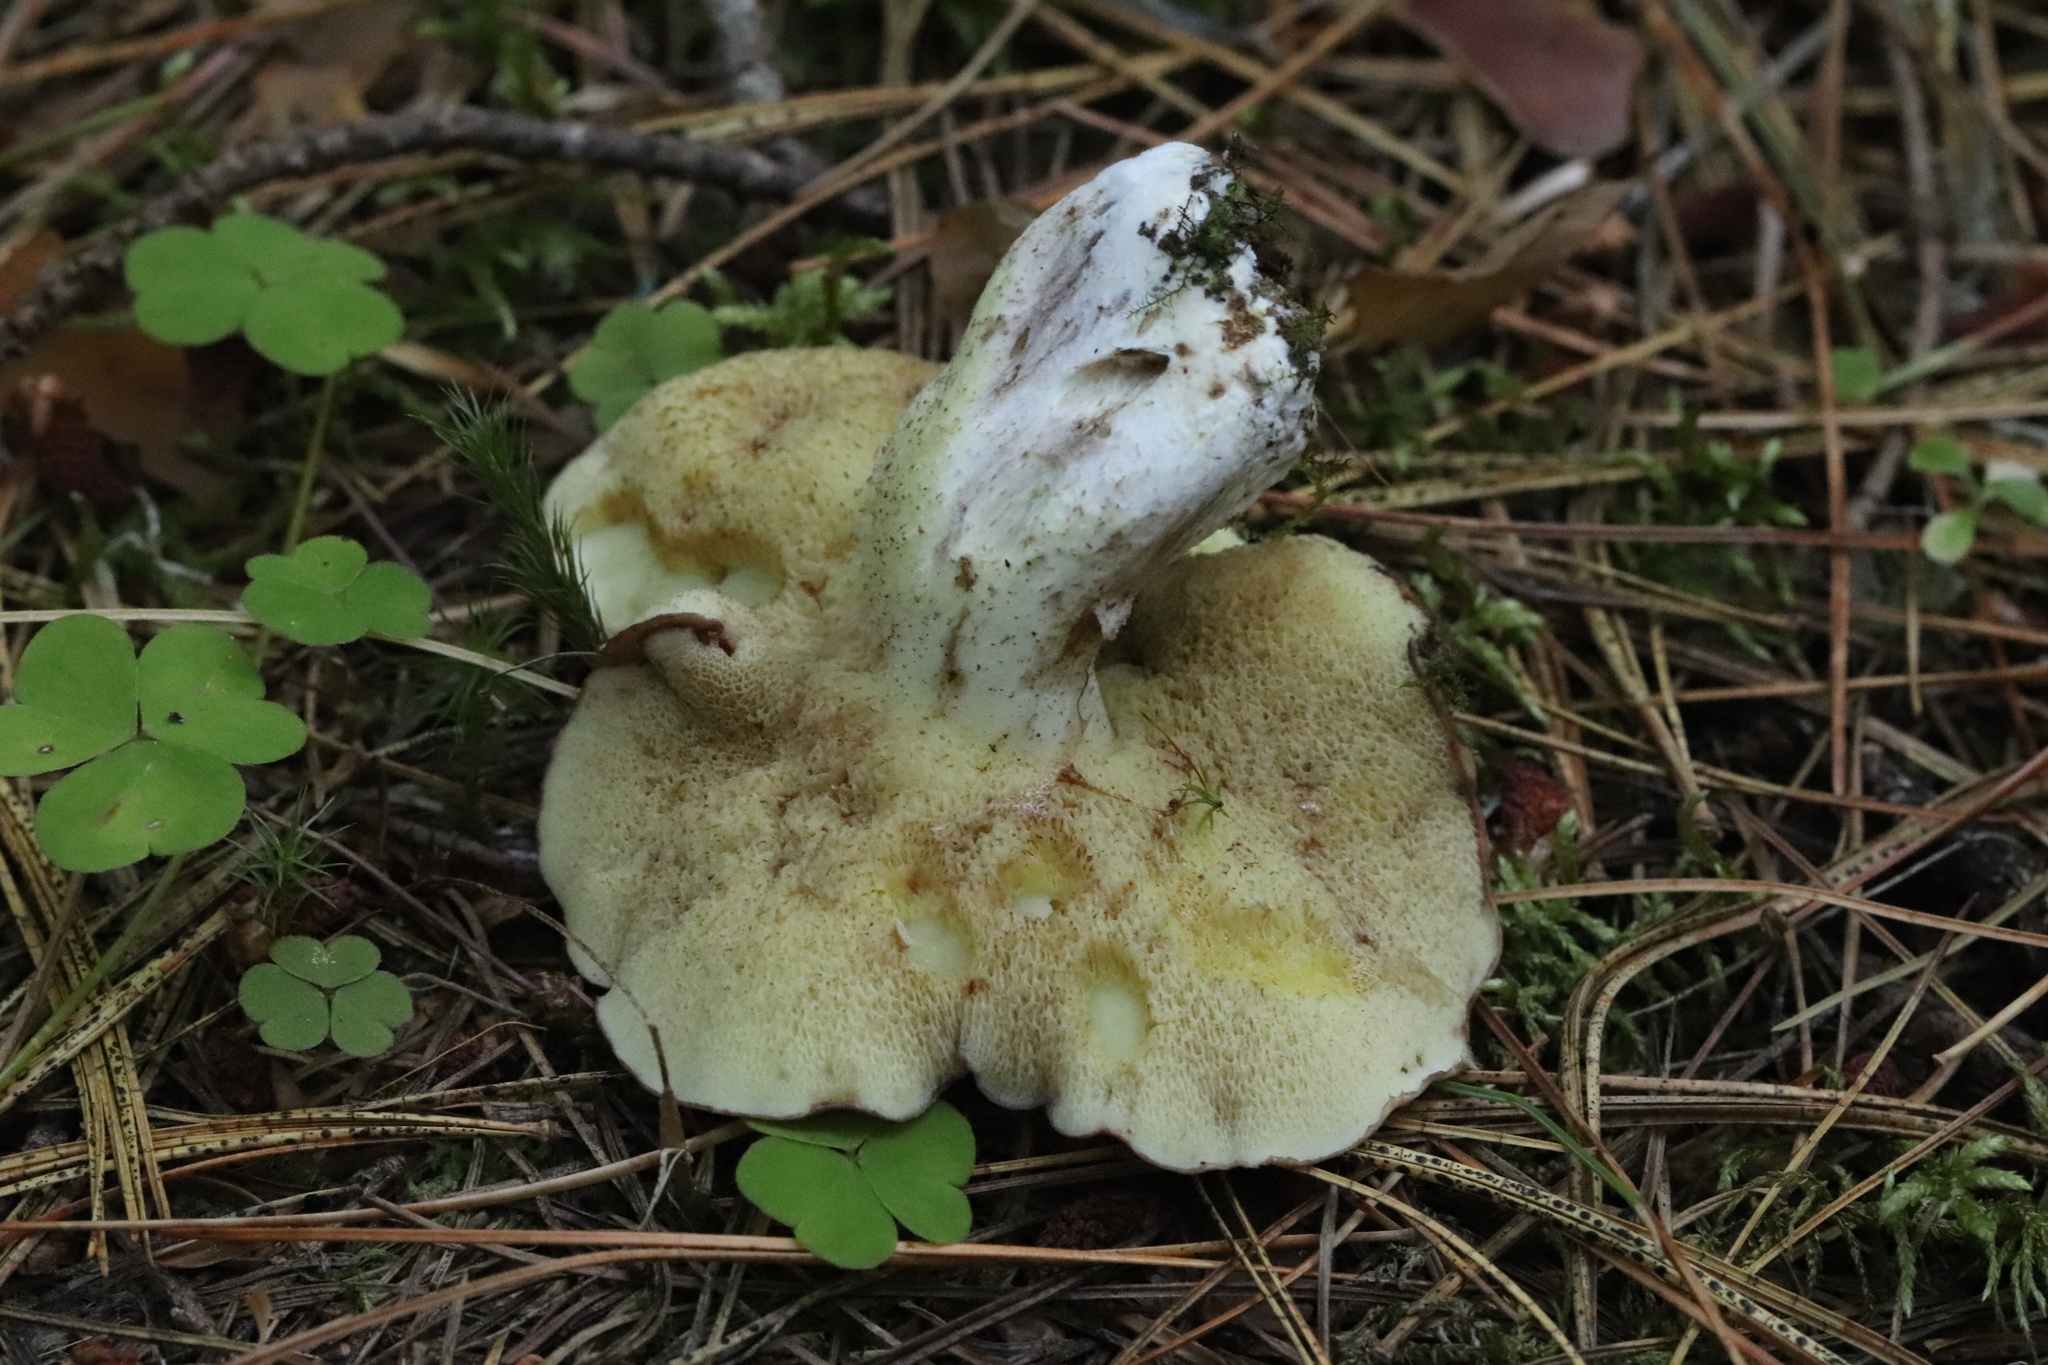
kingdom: Fungi
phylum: Basidiomycota
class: Agaricomycetes
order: Boletales
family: Suillaceae
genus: Suillus
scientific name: Suillus placidus
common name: Slippery white bolete
